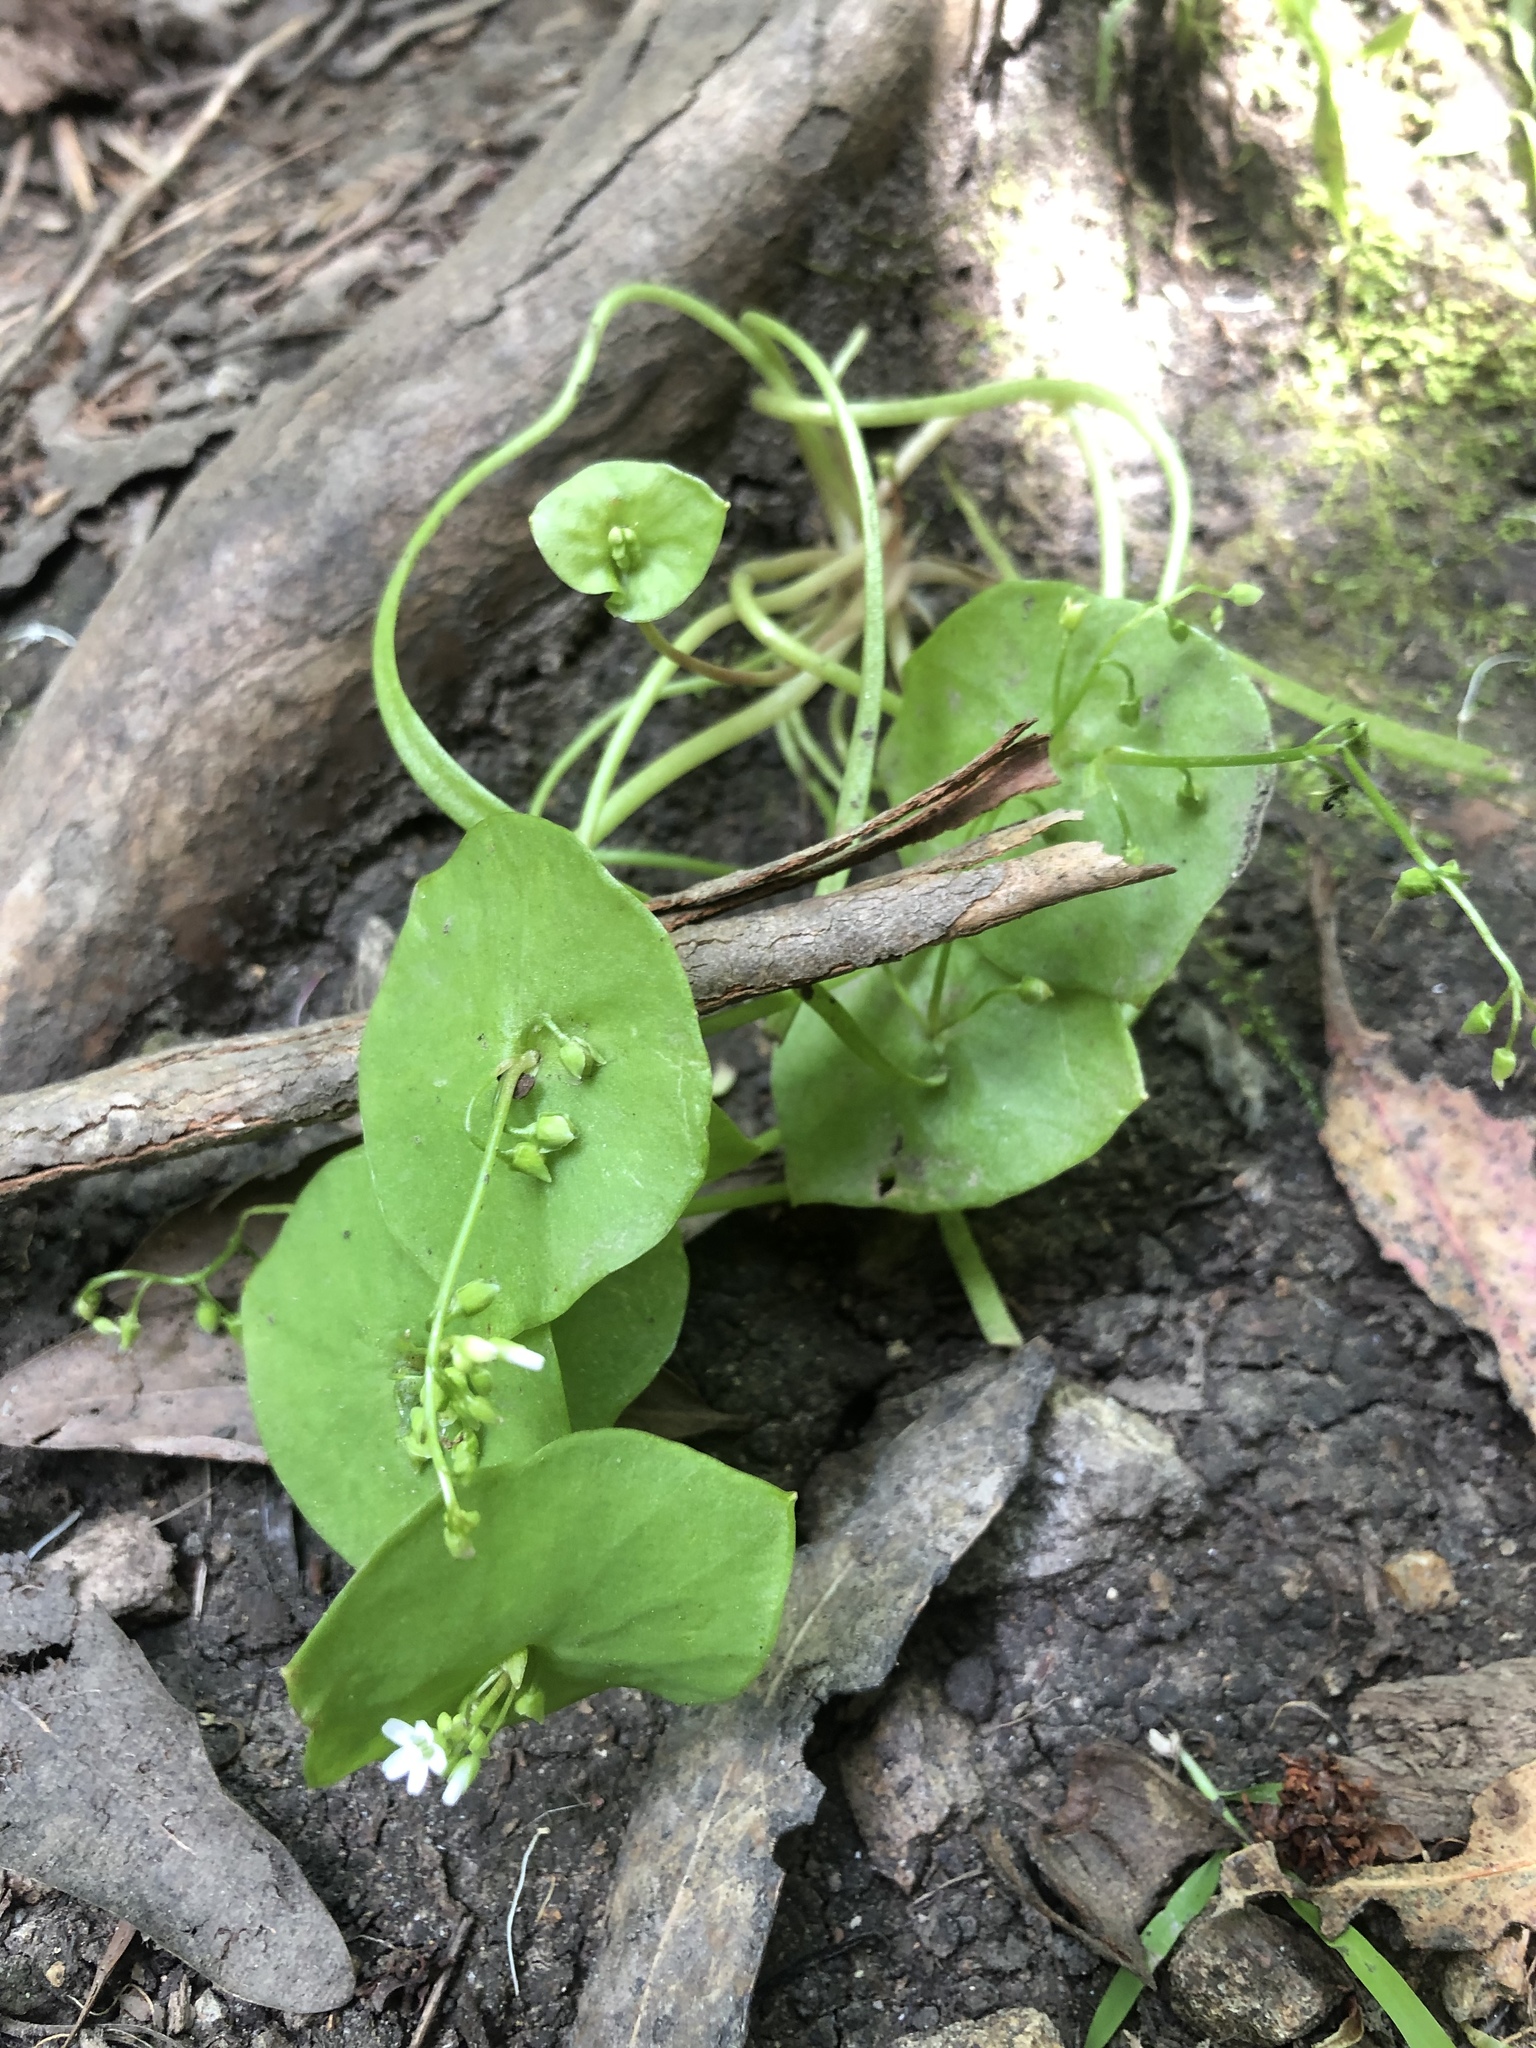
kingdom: Plantae
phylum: Tracheophyta
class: Magnoliopsida
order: Caryophyllales
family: Montiaceae
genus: Claytonia
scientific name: Claytonia perfoliata
